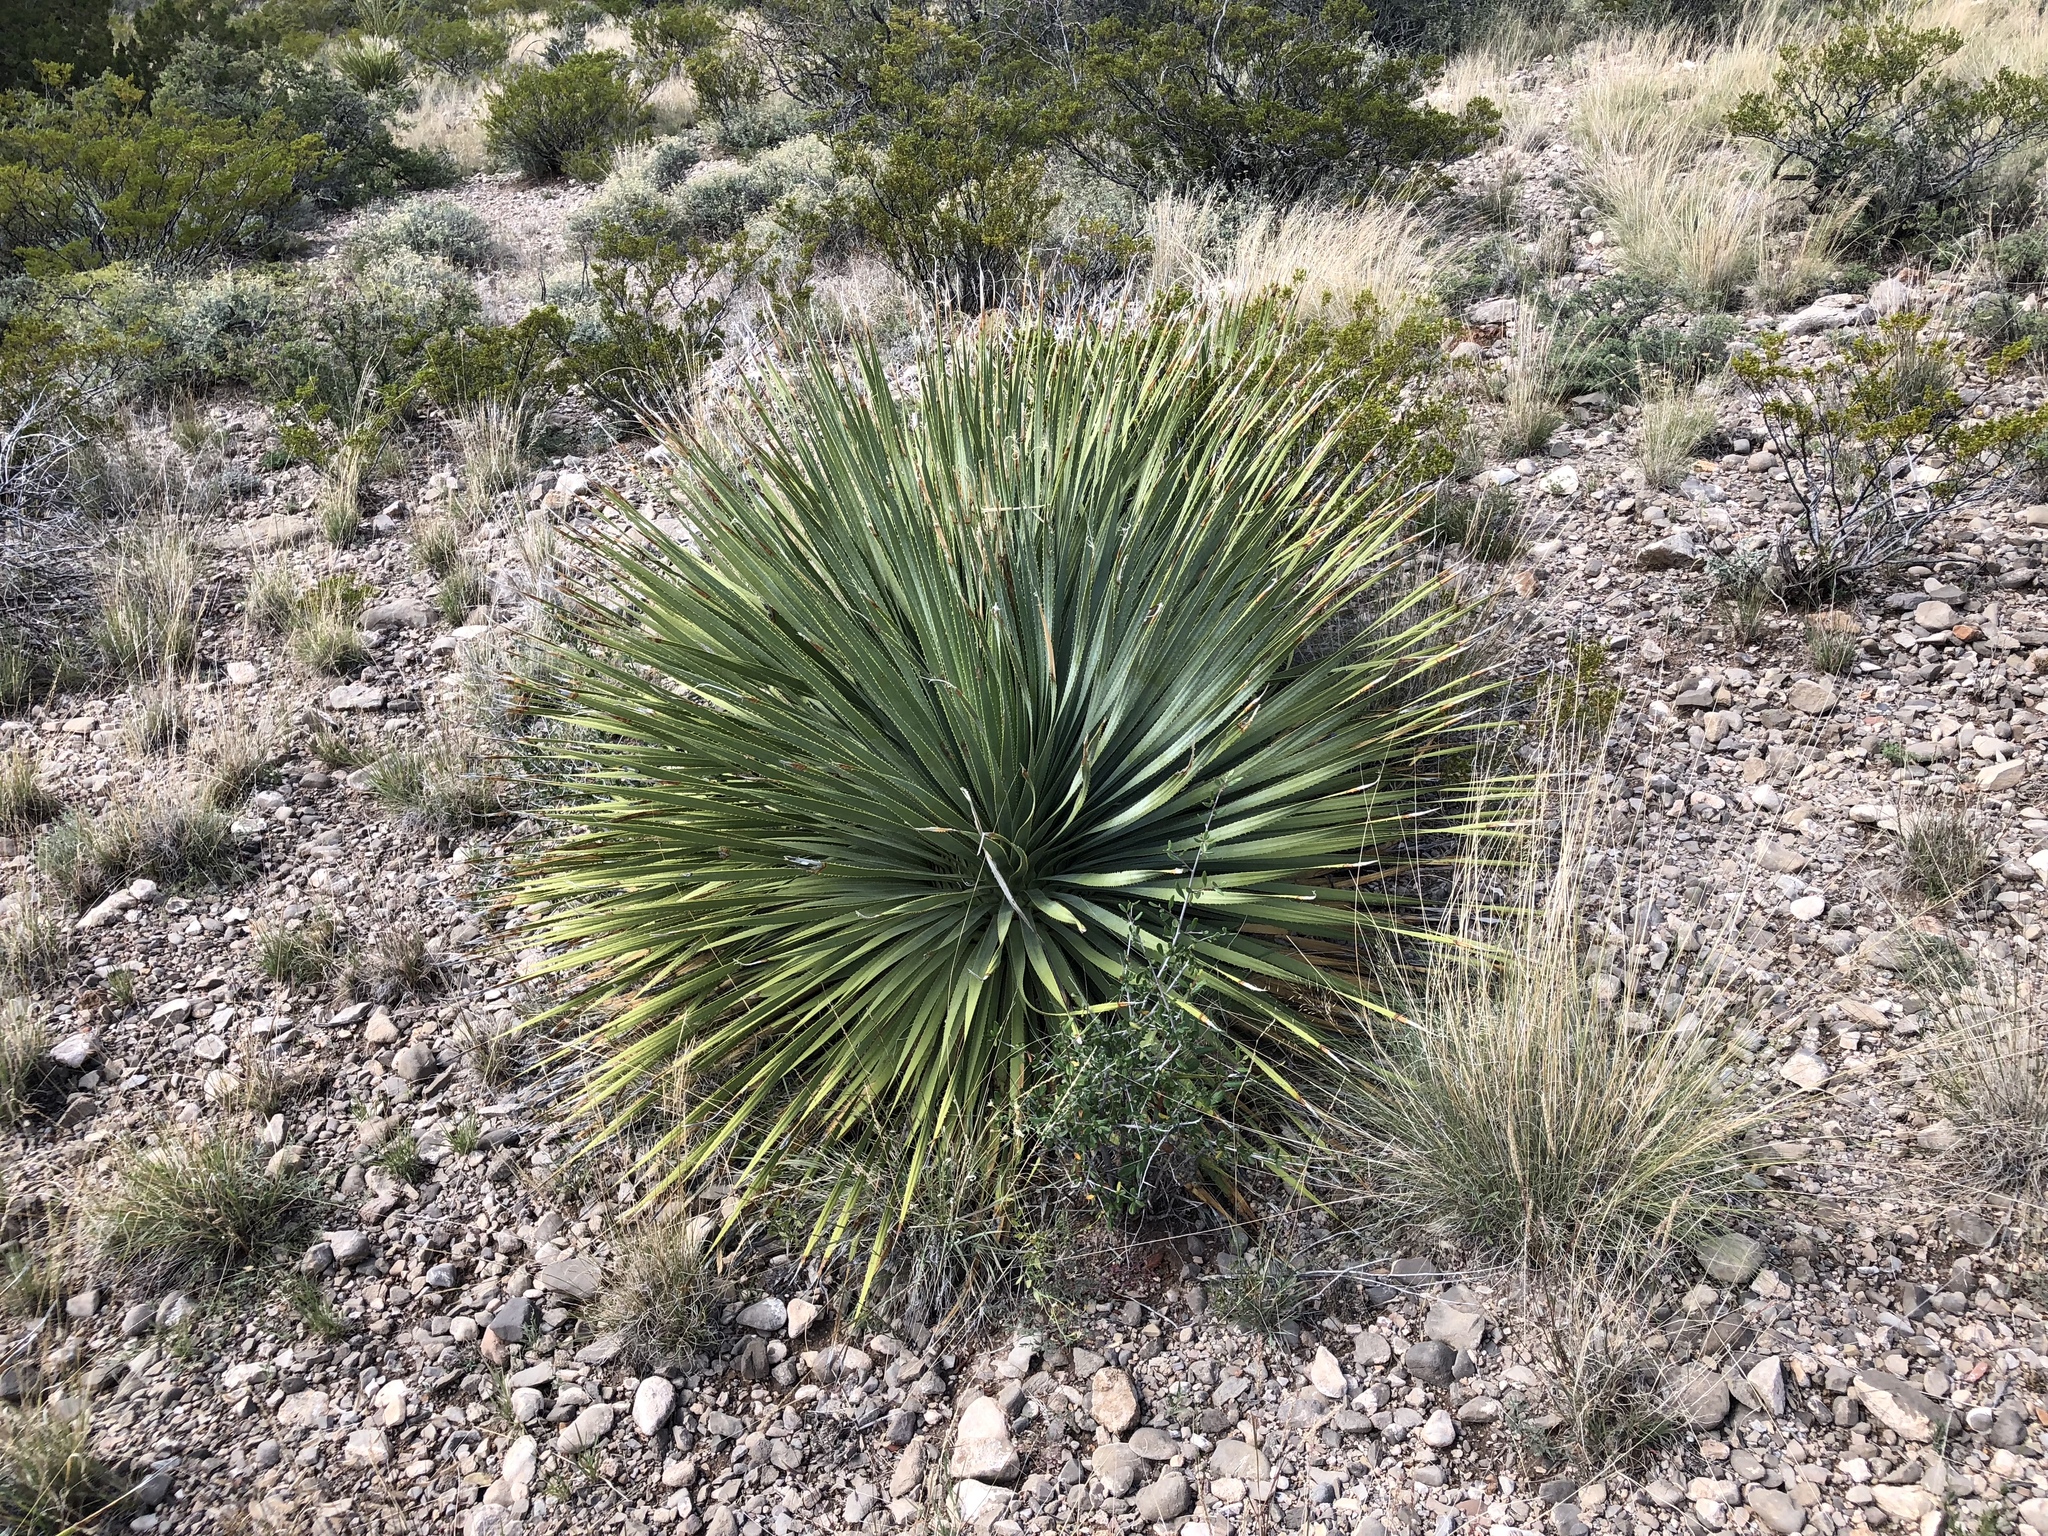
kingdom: Plantae
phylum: Tracheophyta
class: Liliopsida
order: Asparagales
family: Asparagaceae
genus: Dasylirion
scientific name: Dasylirion wheeleri
